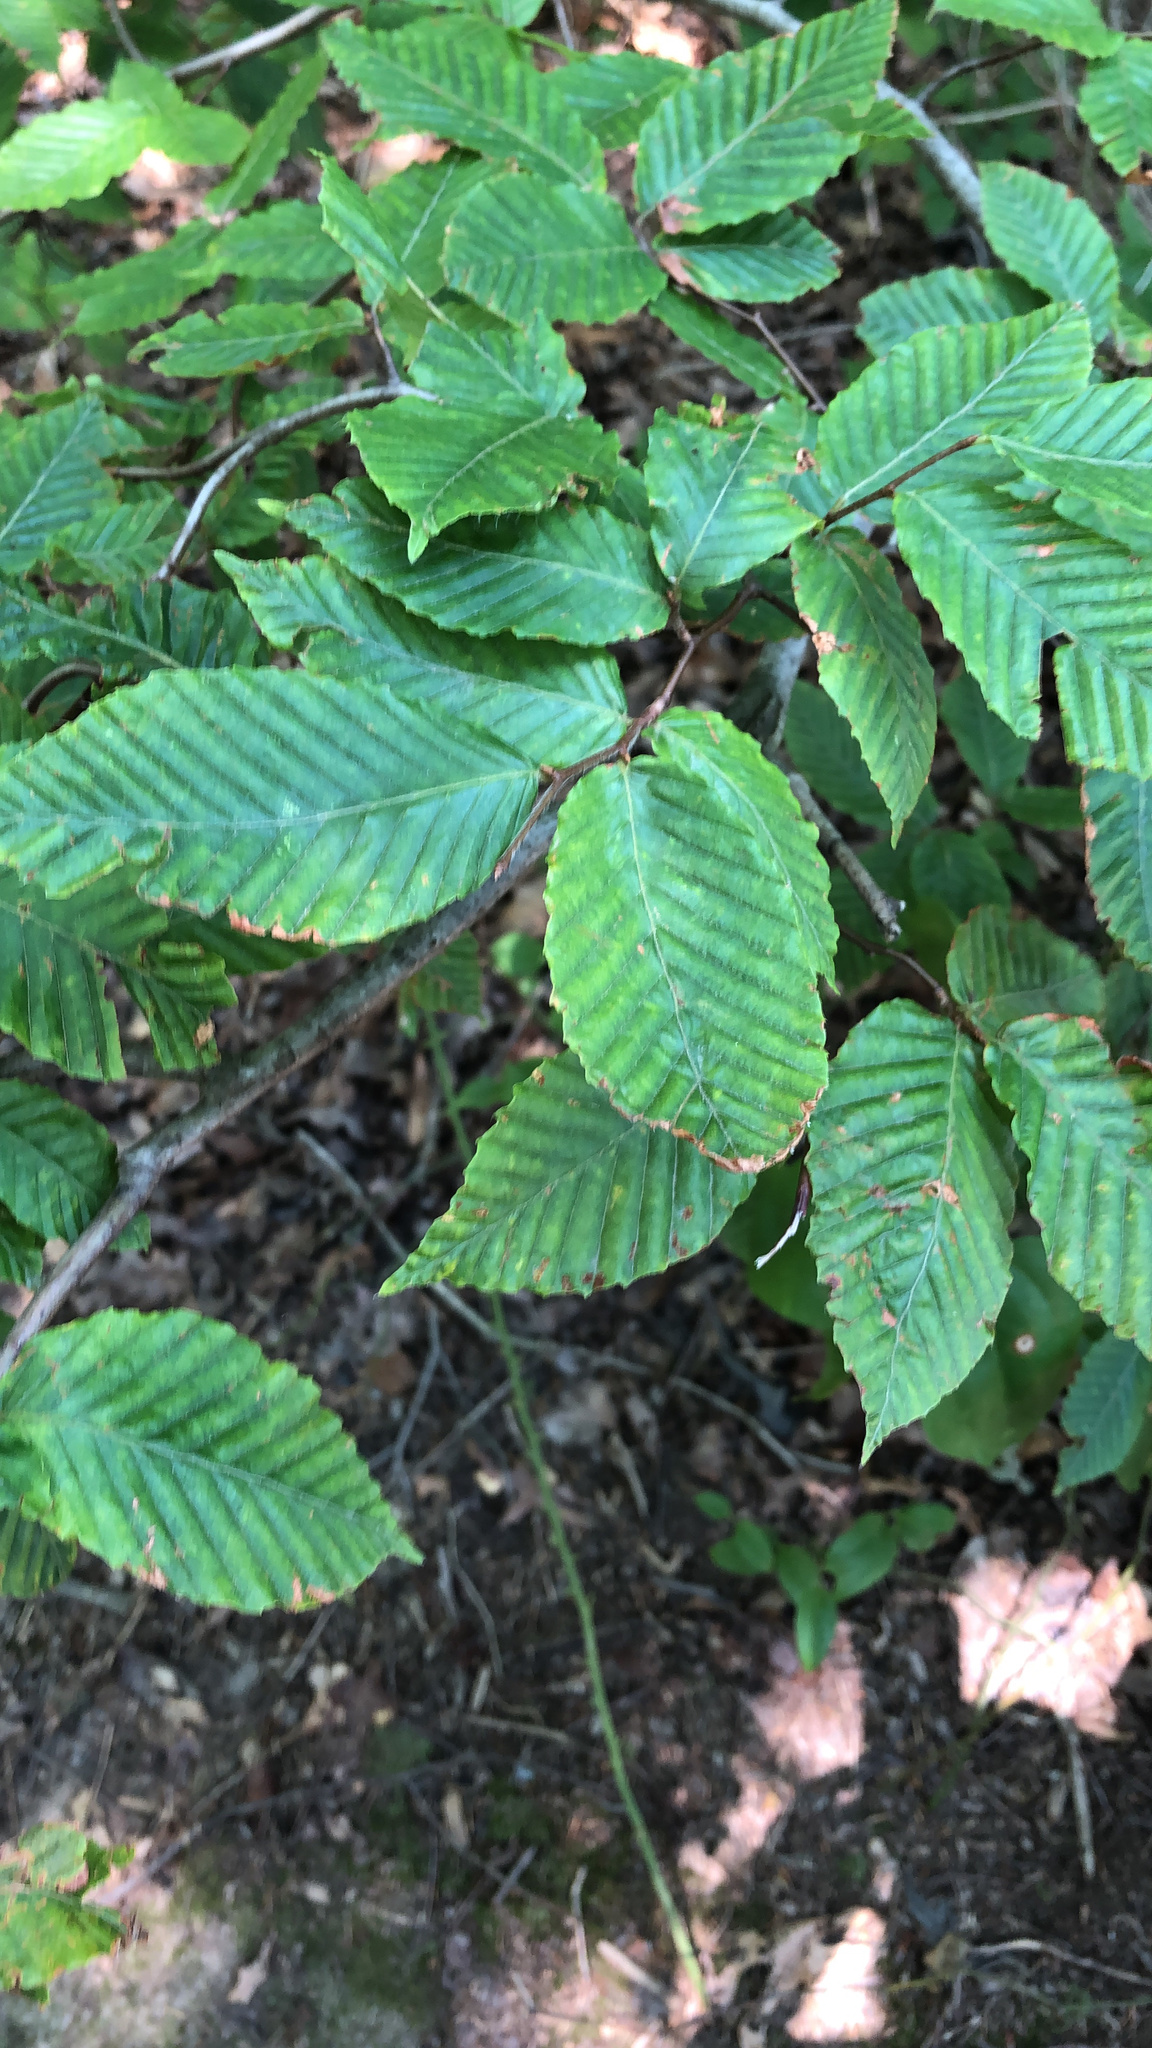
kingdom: Plantae
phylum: Tracheophyta
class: Magnoliopsida
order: Fagales
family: Fagaceae
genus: Fagus
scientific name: Fagus grandifolia
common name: American beech
